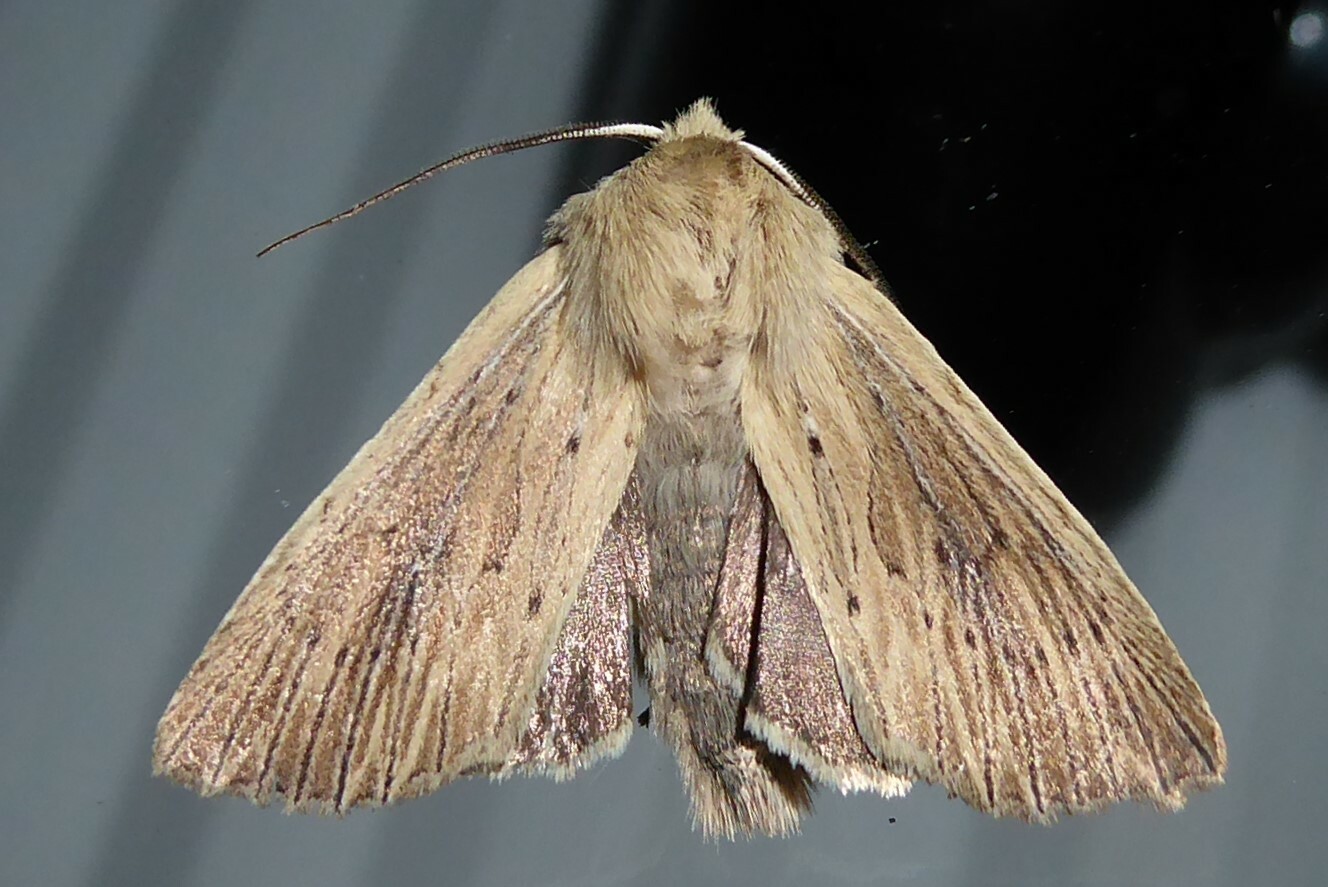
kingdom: Animalia
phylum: Arthropoda
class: Insecta
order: Lepidoptera
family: Noctuidae
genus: Ichneutica
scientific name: Ichneutica arotis
